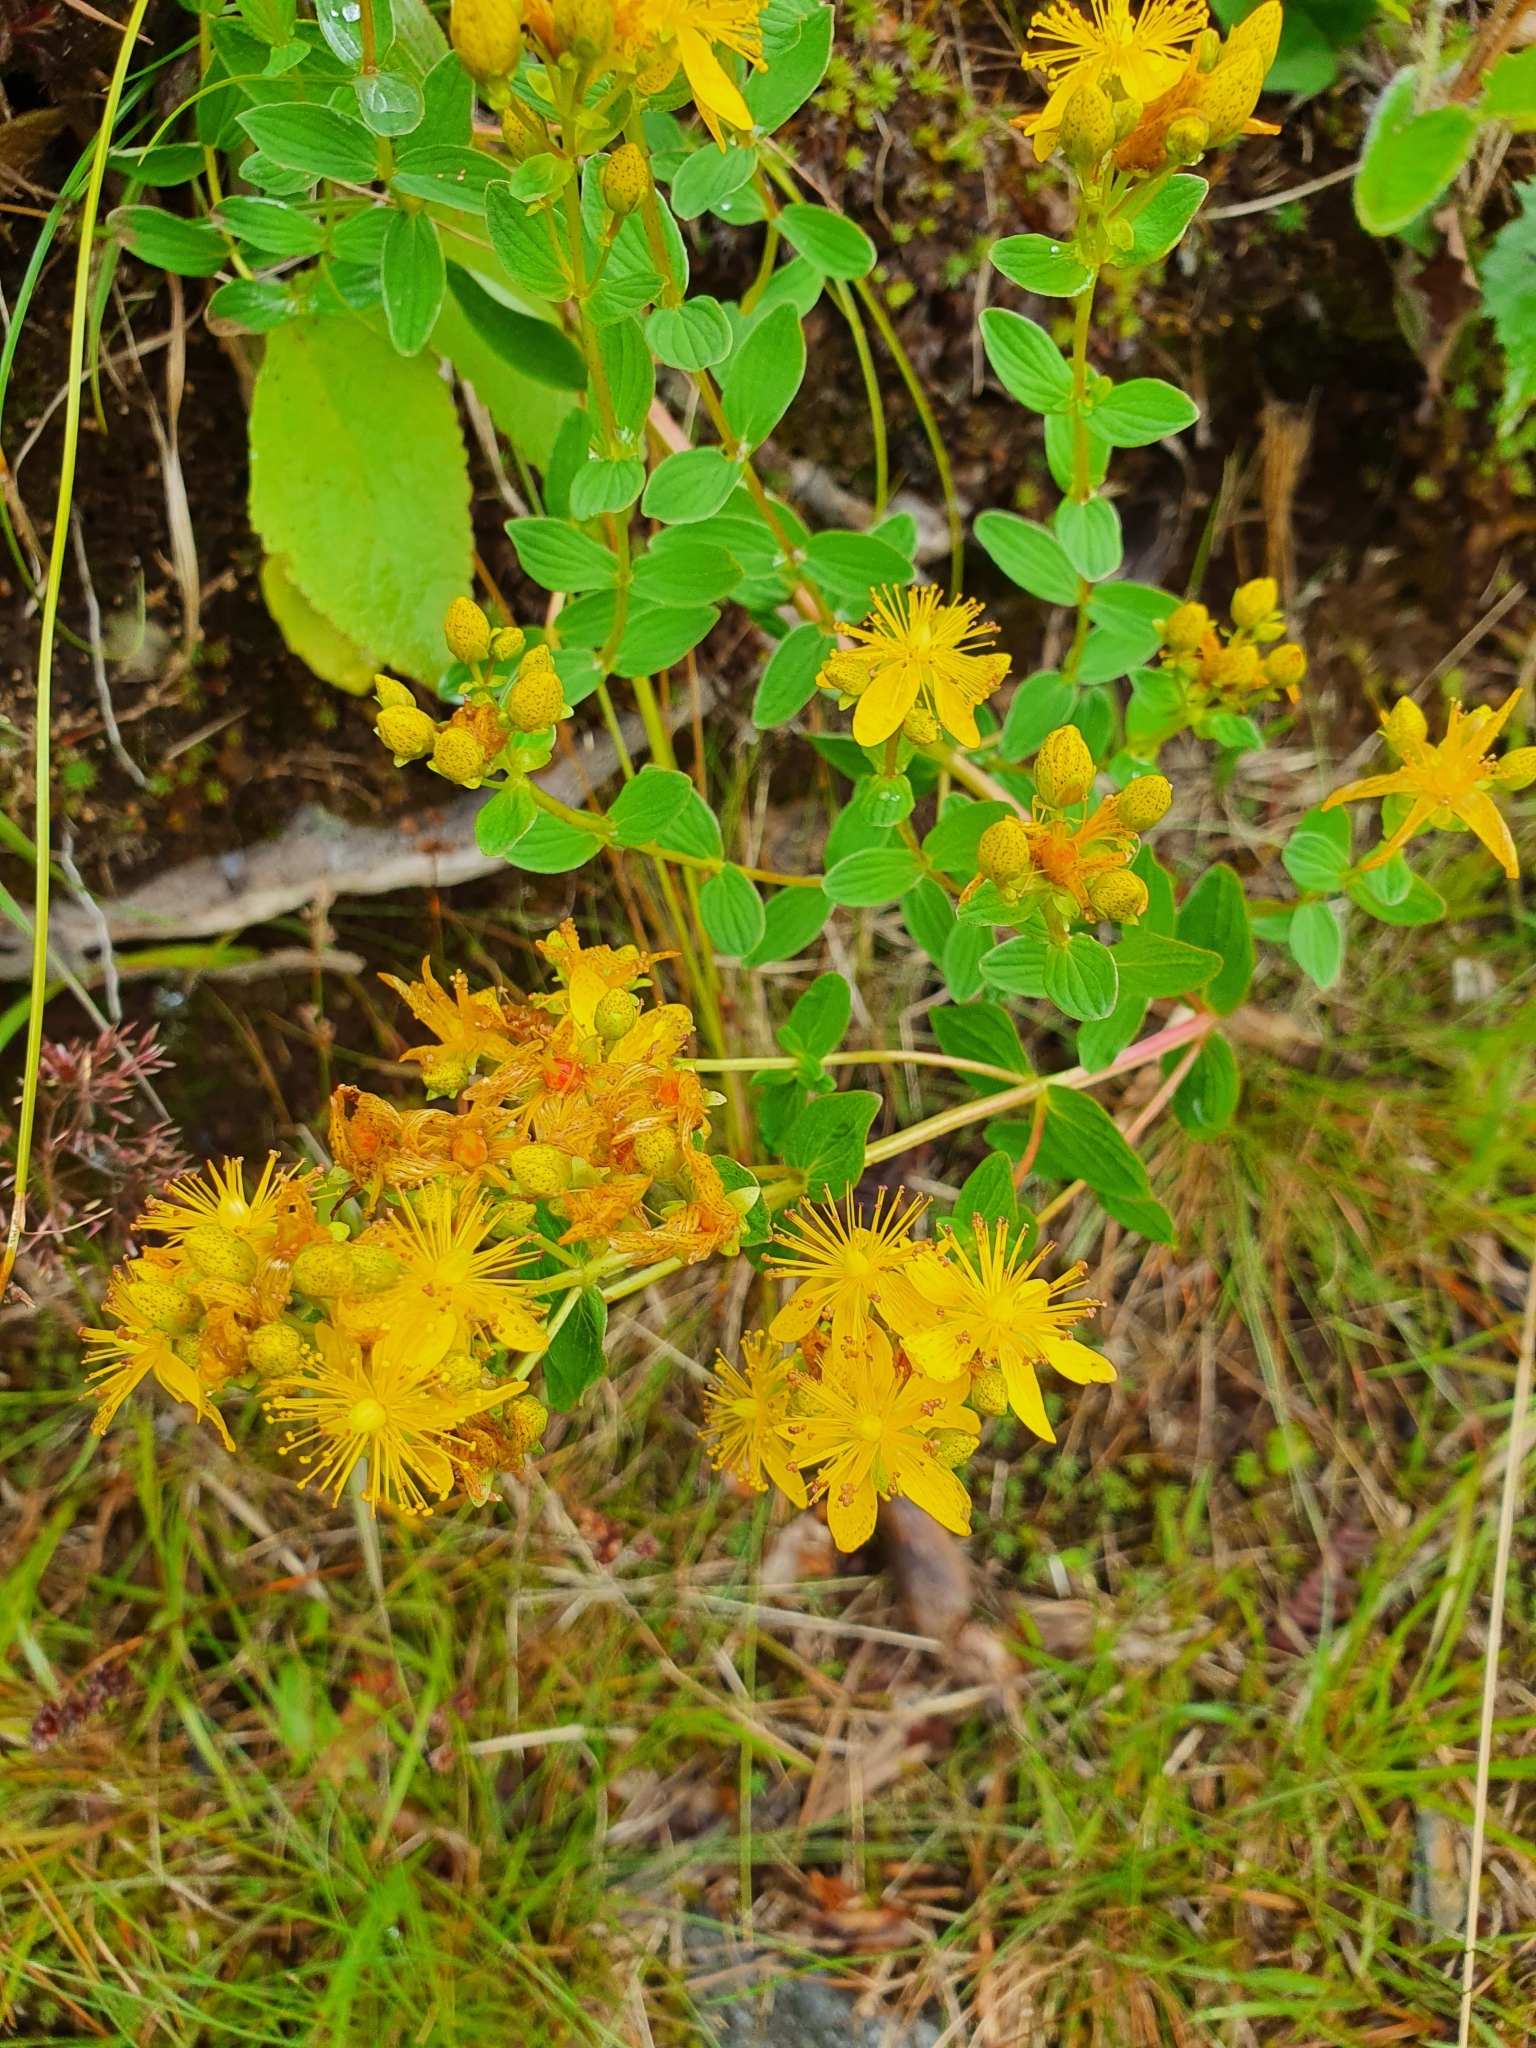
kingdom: Plantae
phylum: Tracheophyta
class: Magnoliopsida
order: Malpighiales
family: Hypericaceae
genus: Hypericum
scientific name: Hypericum maculatum
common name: Imperforate st. john's-wort
